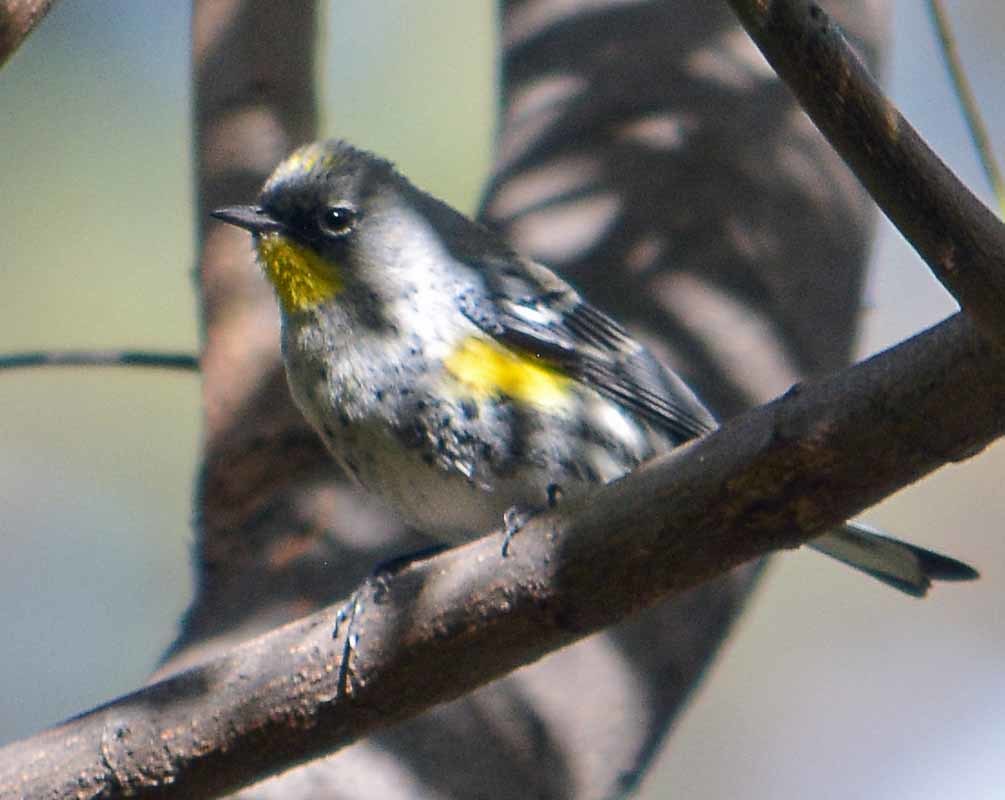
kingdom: Animalia
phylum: Chordata
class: Aves
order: Passeriformes
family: Parulidae
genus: Setophaga
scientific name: Setophaga coronata
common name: Myrtle warbler
